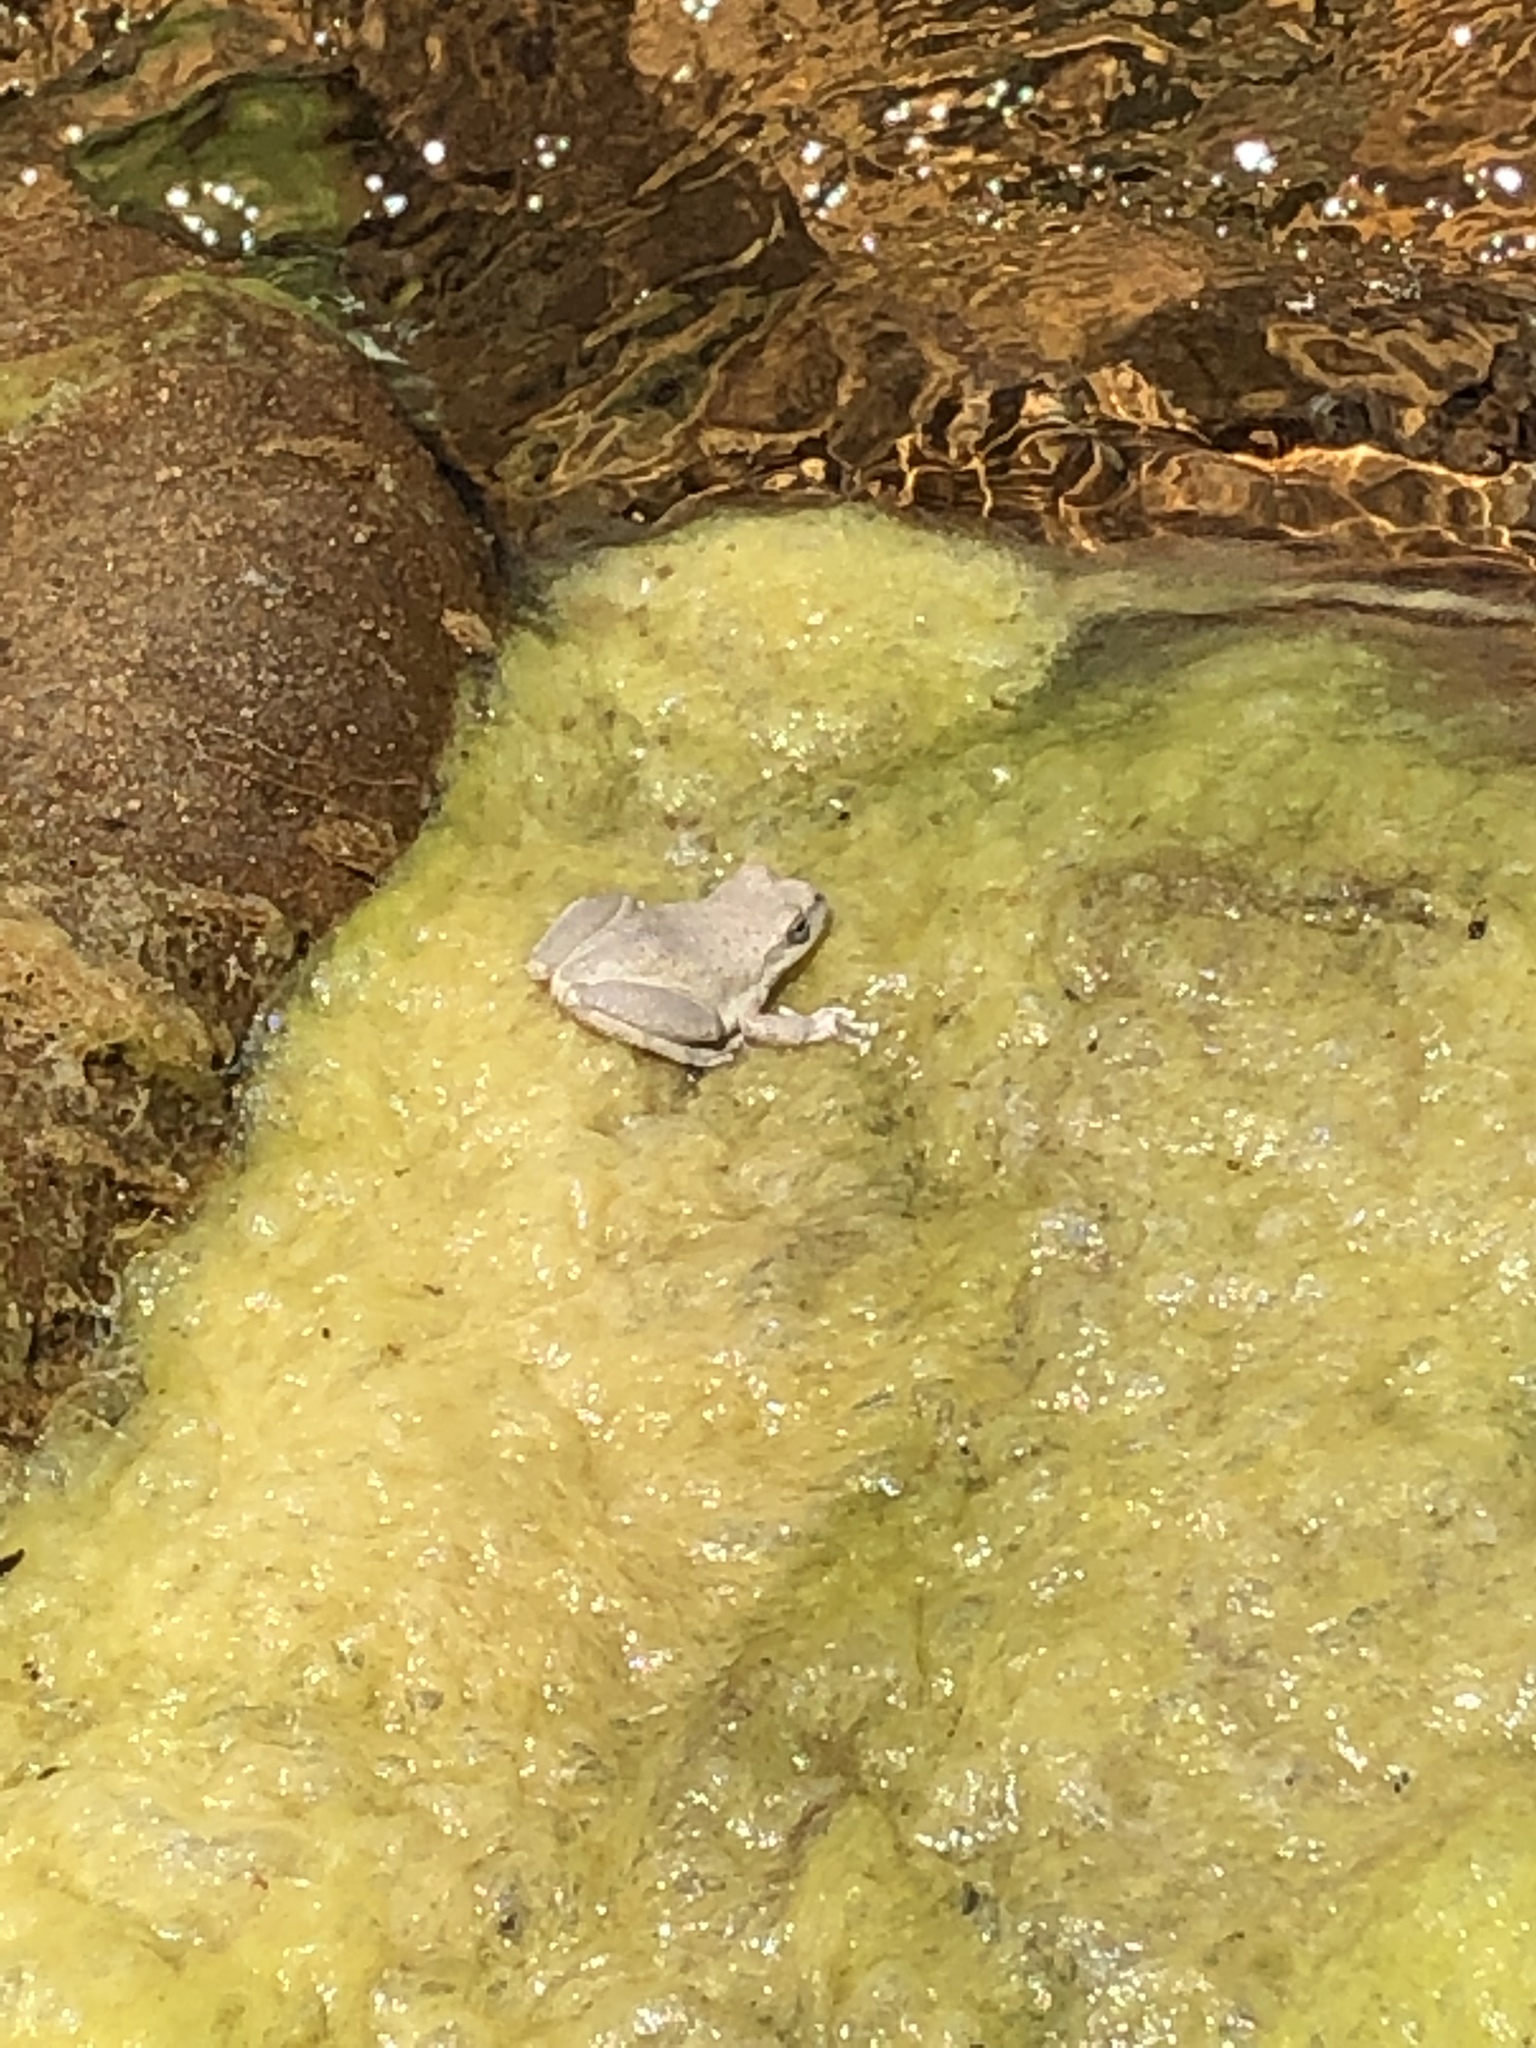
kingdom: Animalia
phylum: Chordata
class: Amphibia
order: Anura
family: Hylidae
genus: Pseudacris
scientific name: Pseudacris cadaverina
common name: California chorus frog
